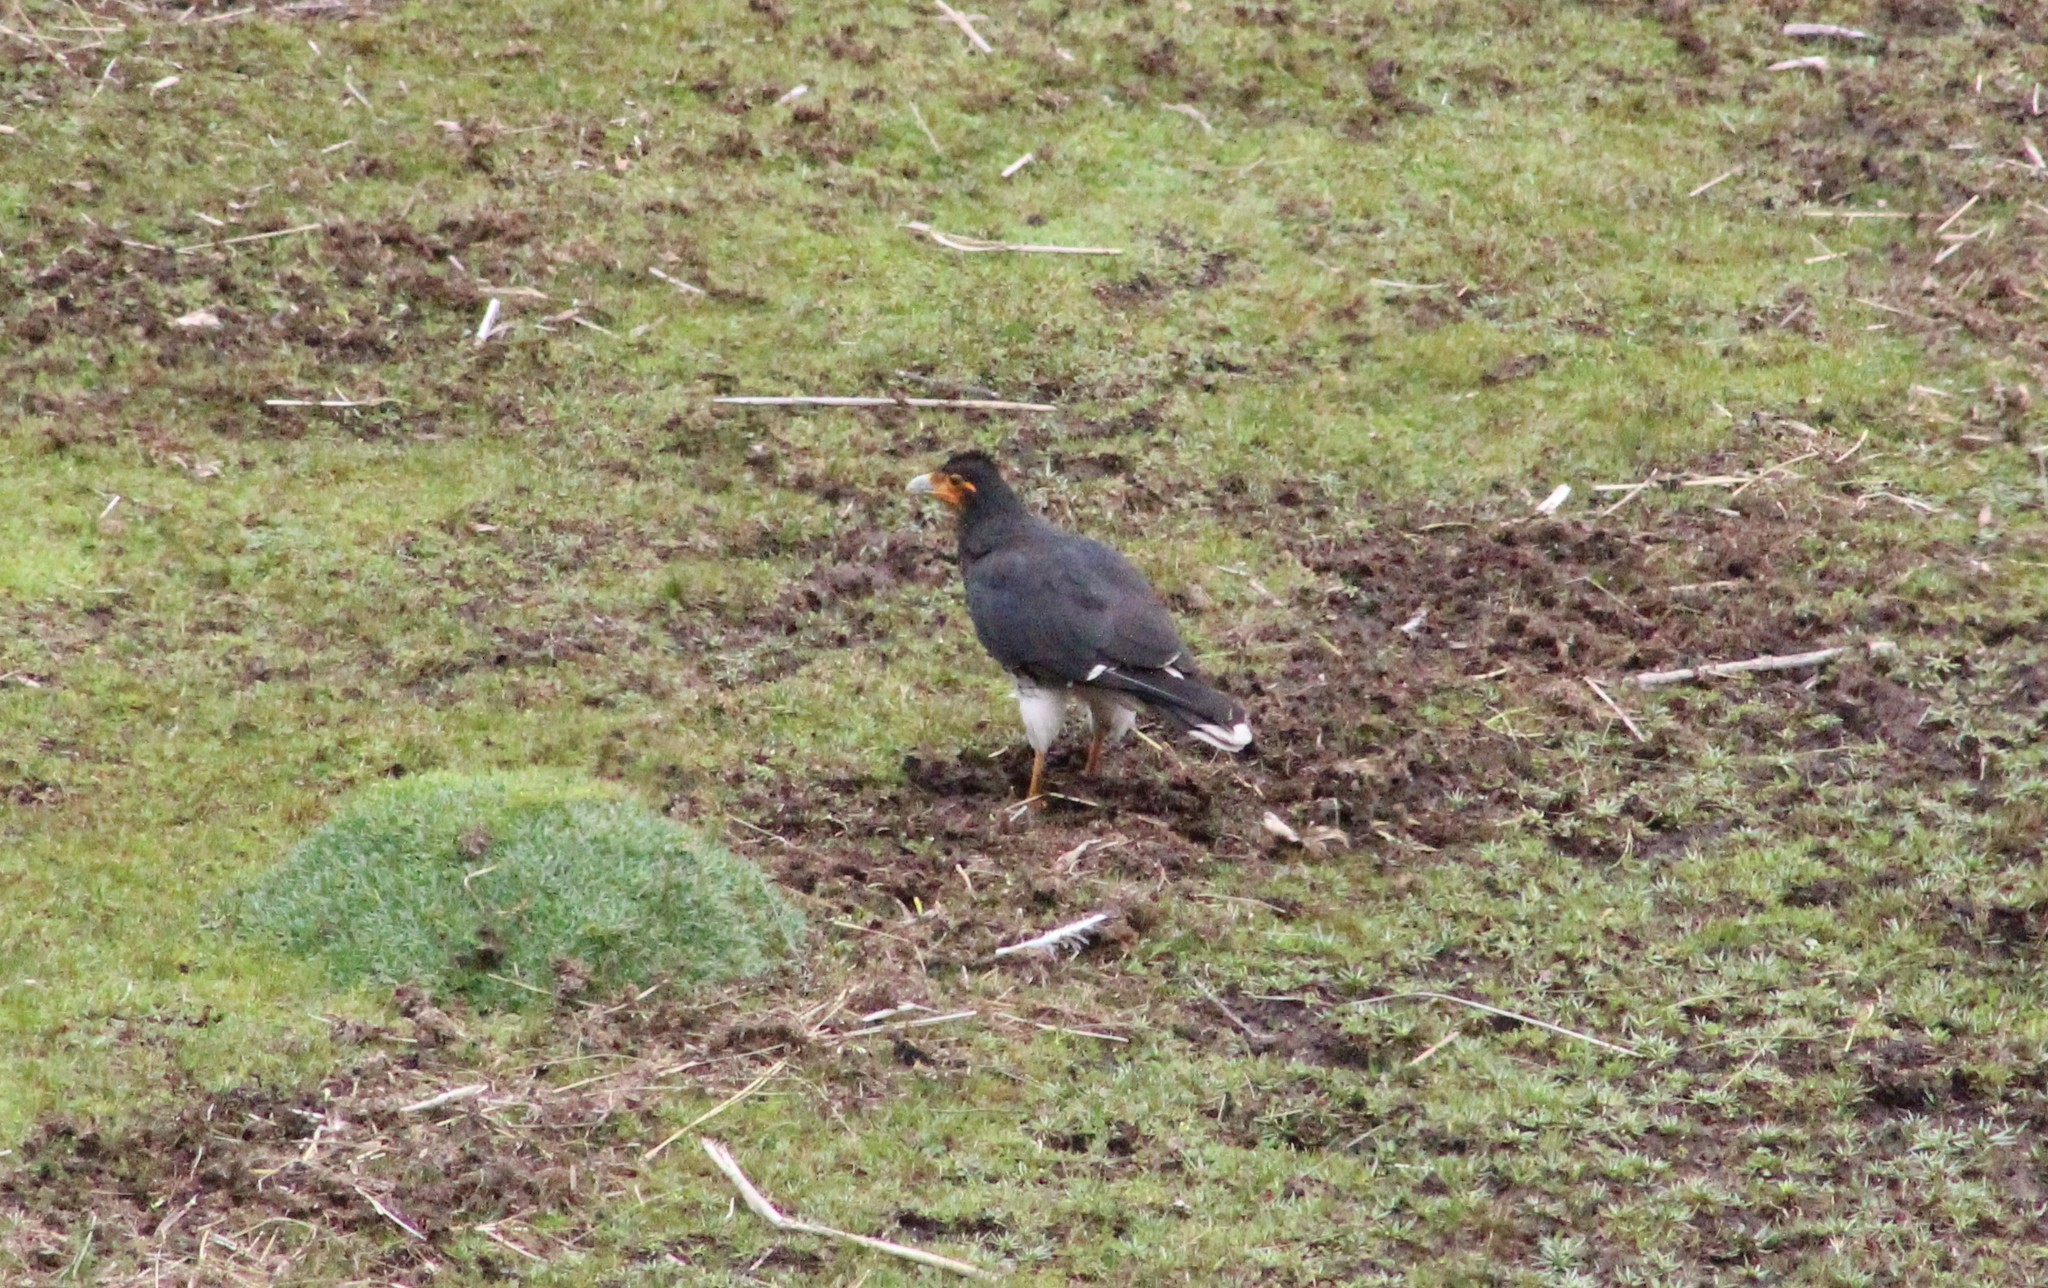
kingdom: Animalia
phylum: Chordata
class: Aves
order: Falconiformes
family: Falconidae
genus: Daptrius
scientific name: Daptrius
